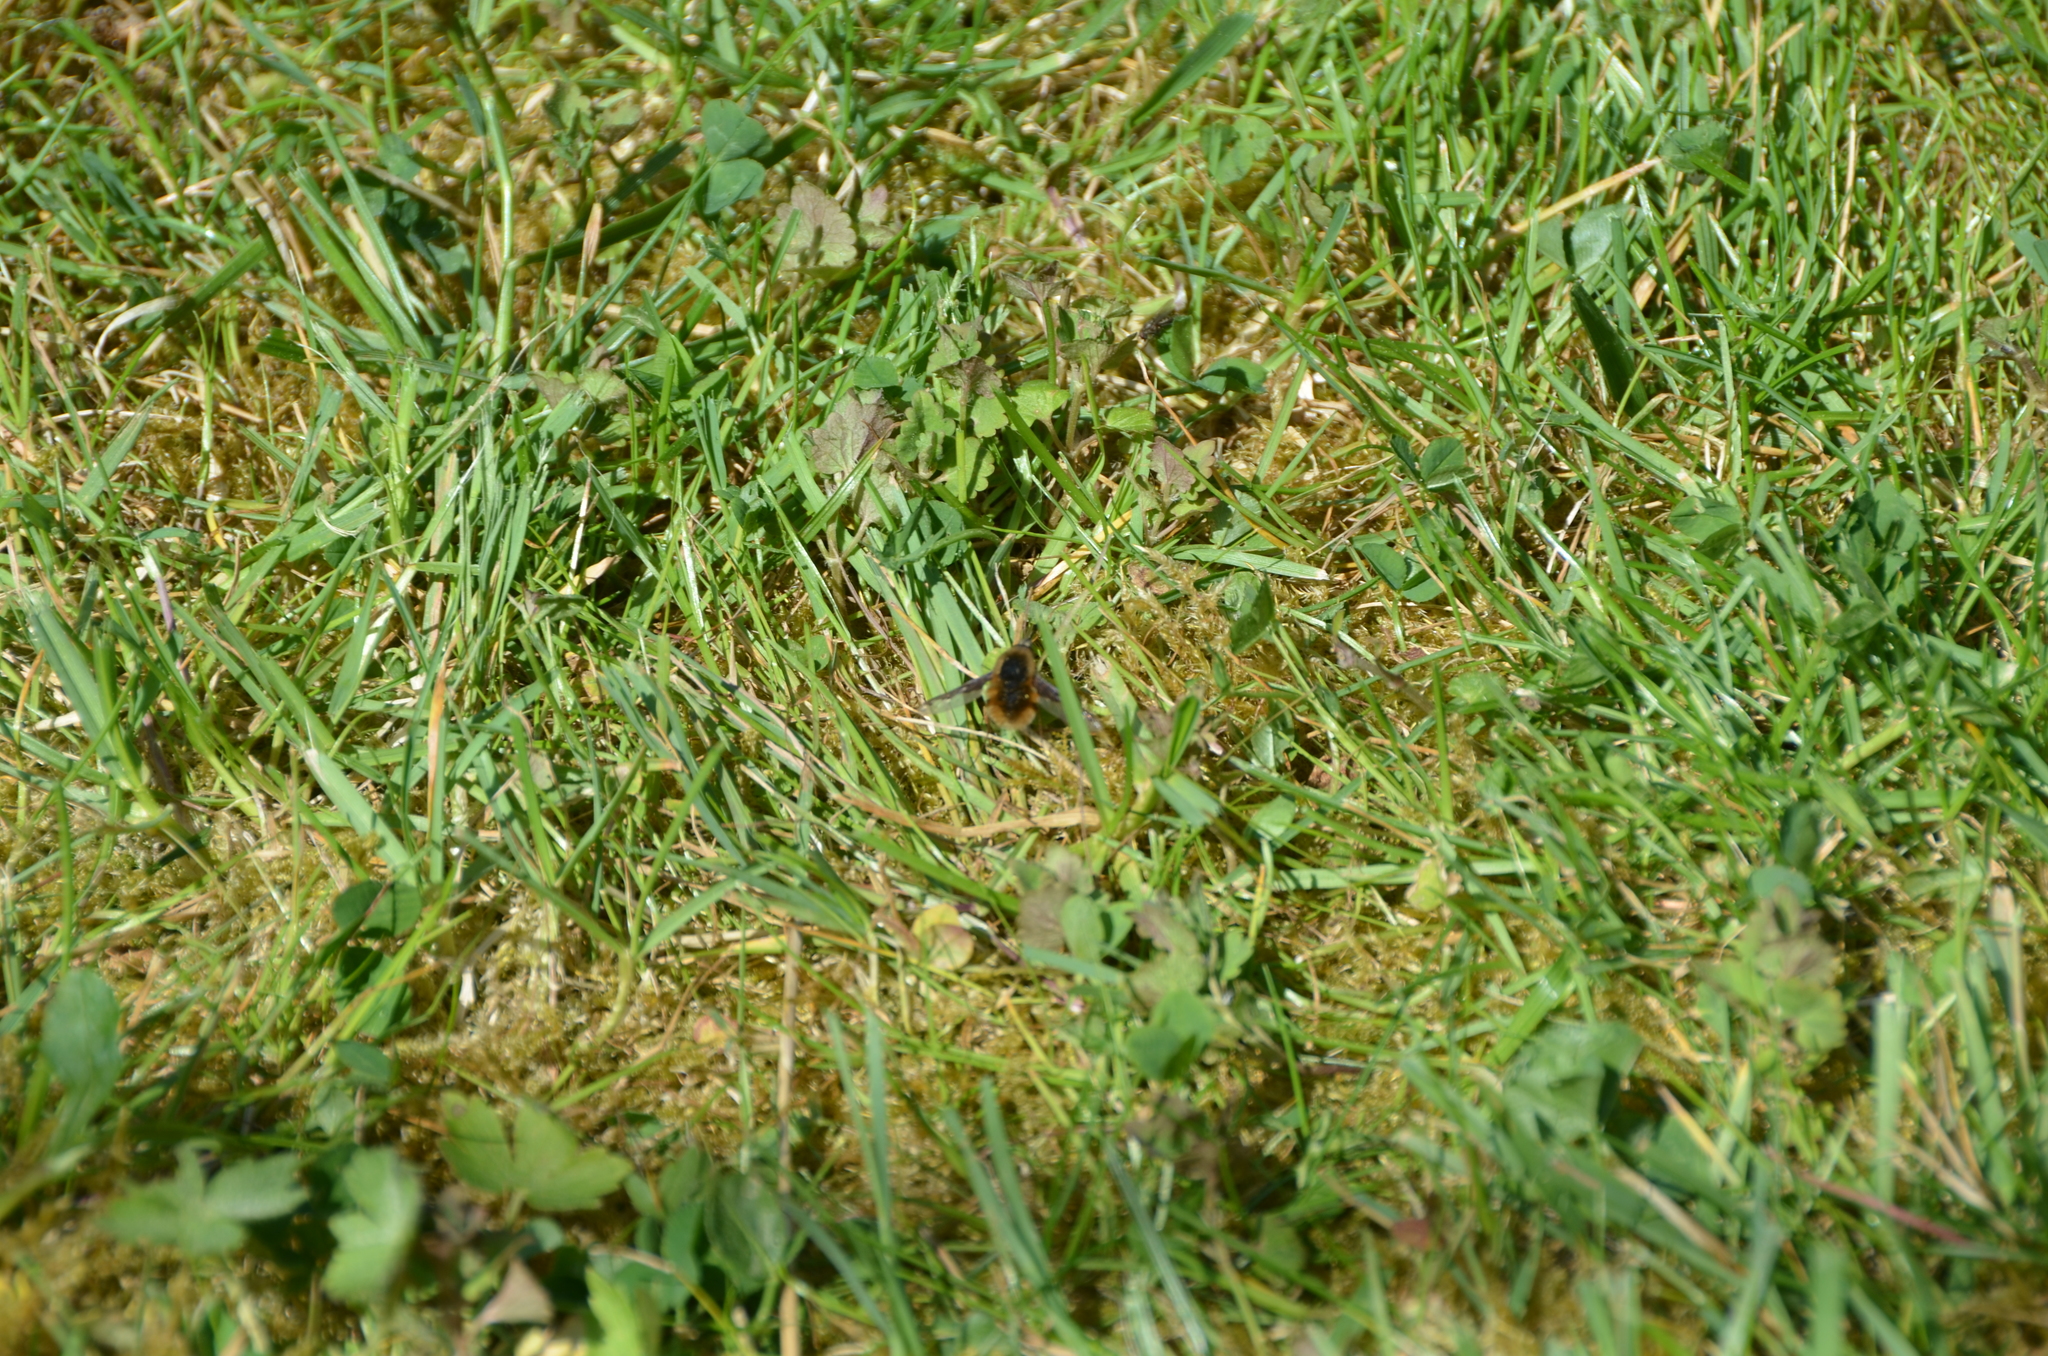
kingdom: Animalia
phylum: Arthropoda
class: Insecta
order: Diptera
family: Bombyliidae
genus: Bombylius
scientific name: Bombylius major
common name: Bee fly
